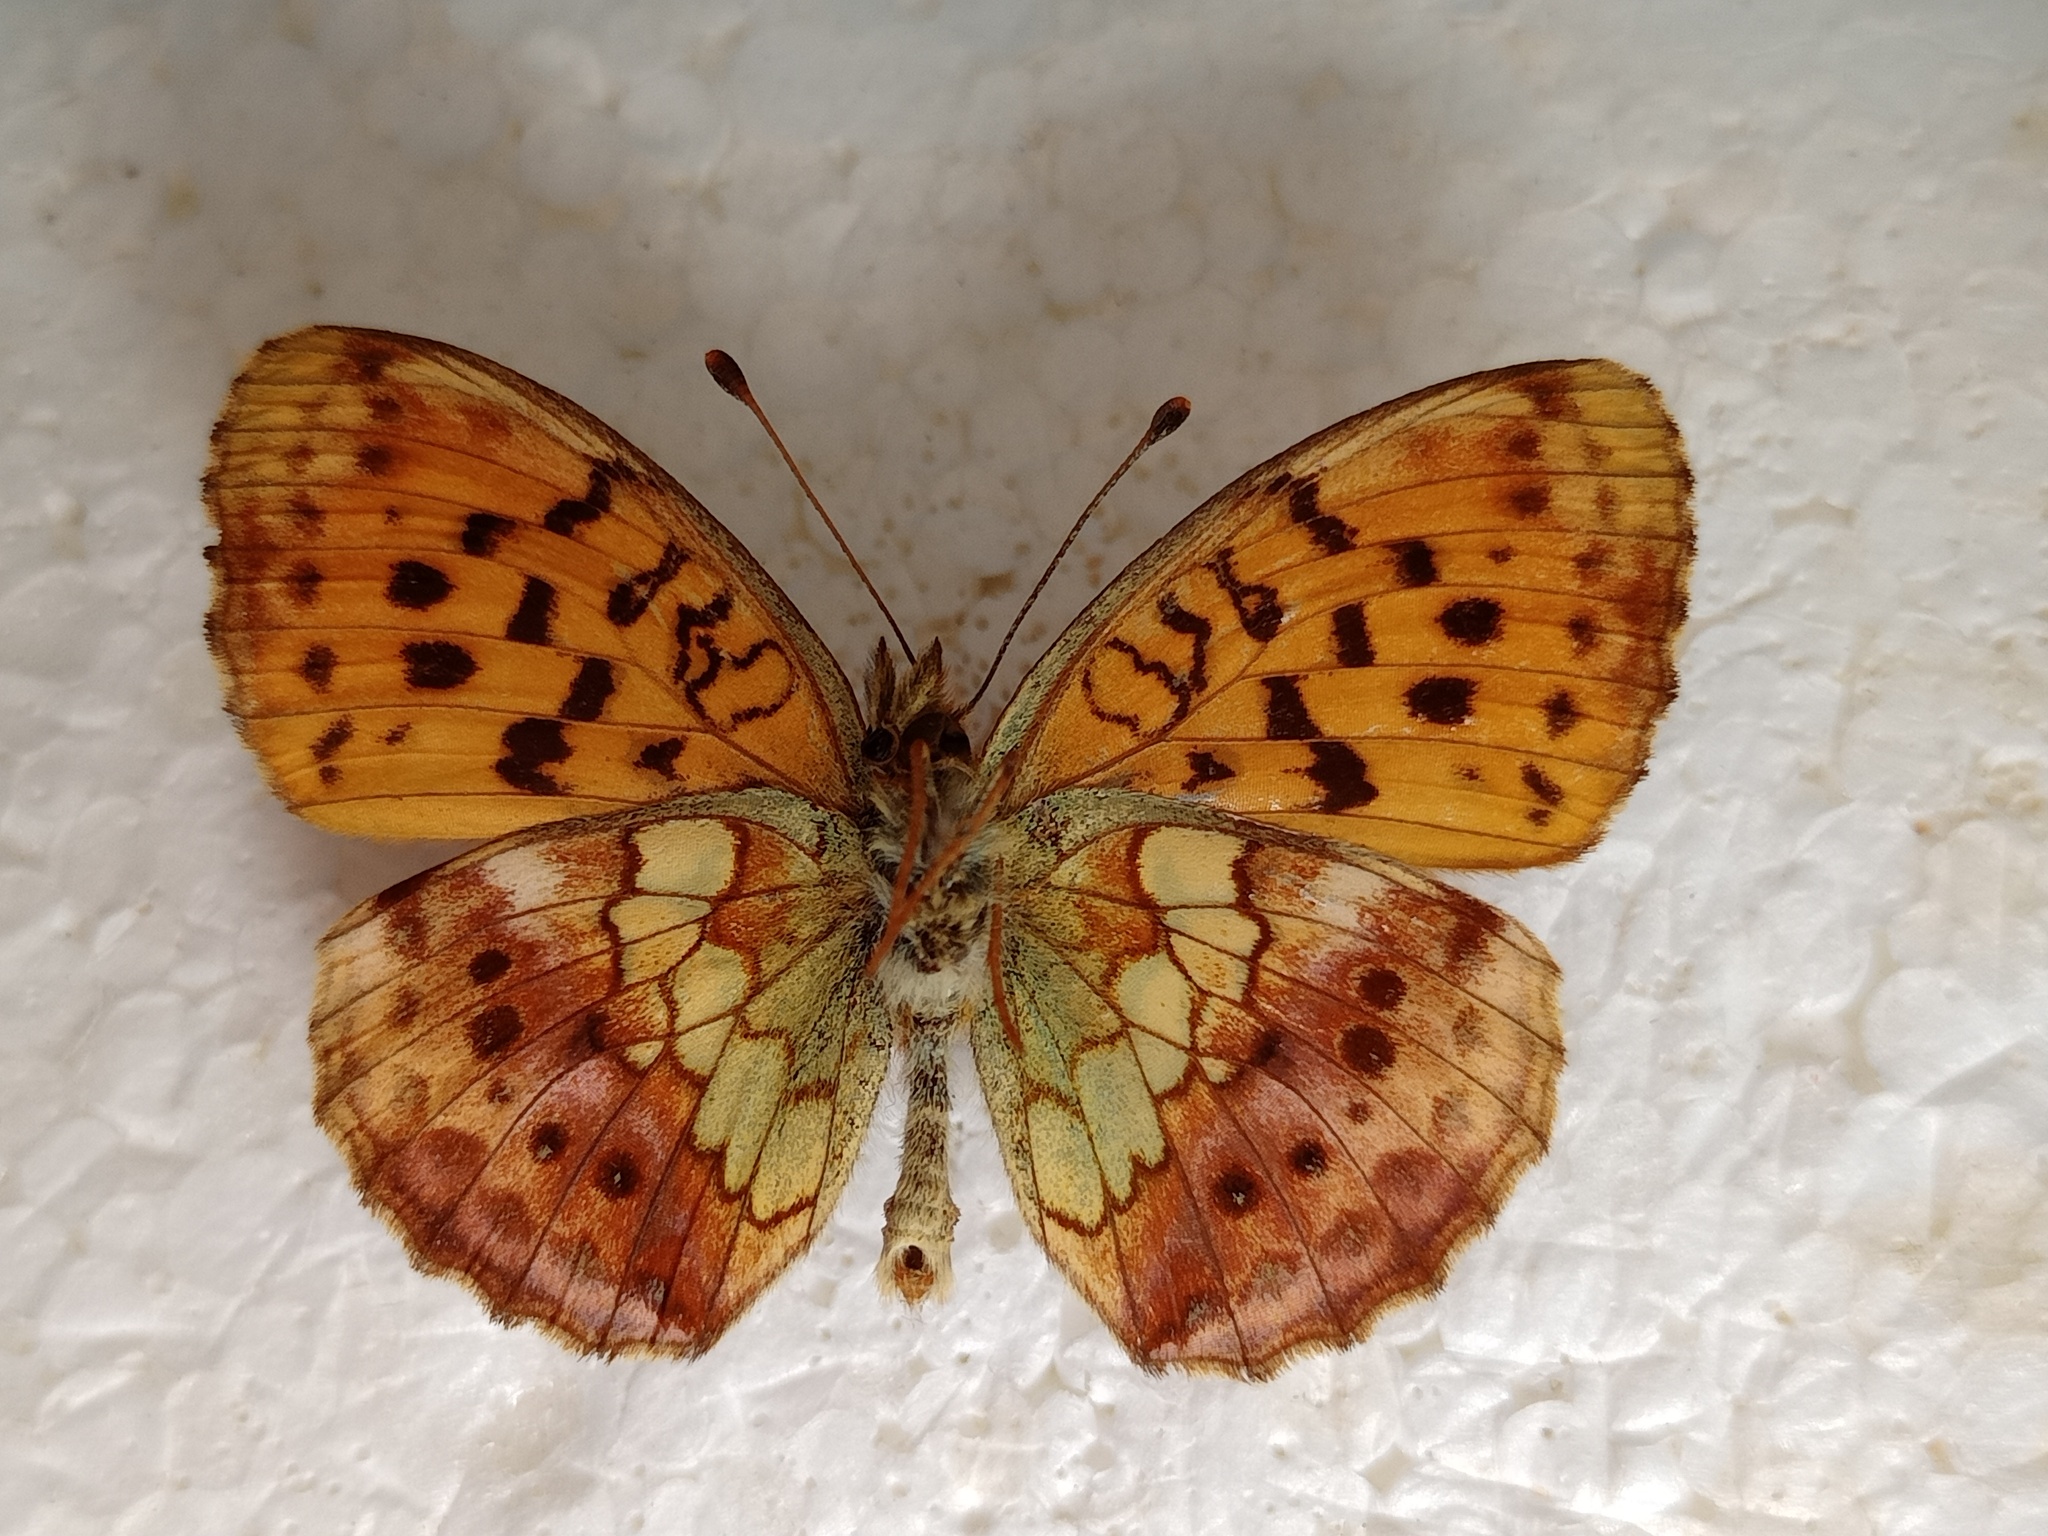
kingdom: Animalia
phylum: Arthropoda
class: Insecta
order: Lepidoptera
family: Nymphalidae
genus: Brenthis
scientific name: Brenthis daphne
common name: Marbled fritillary
